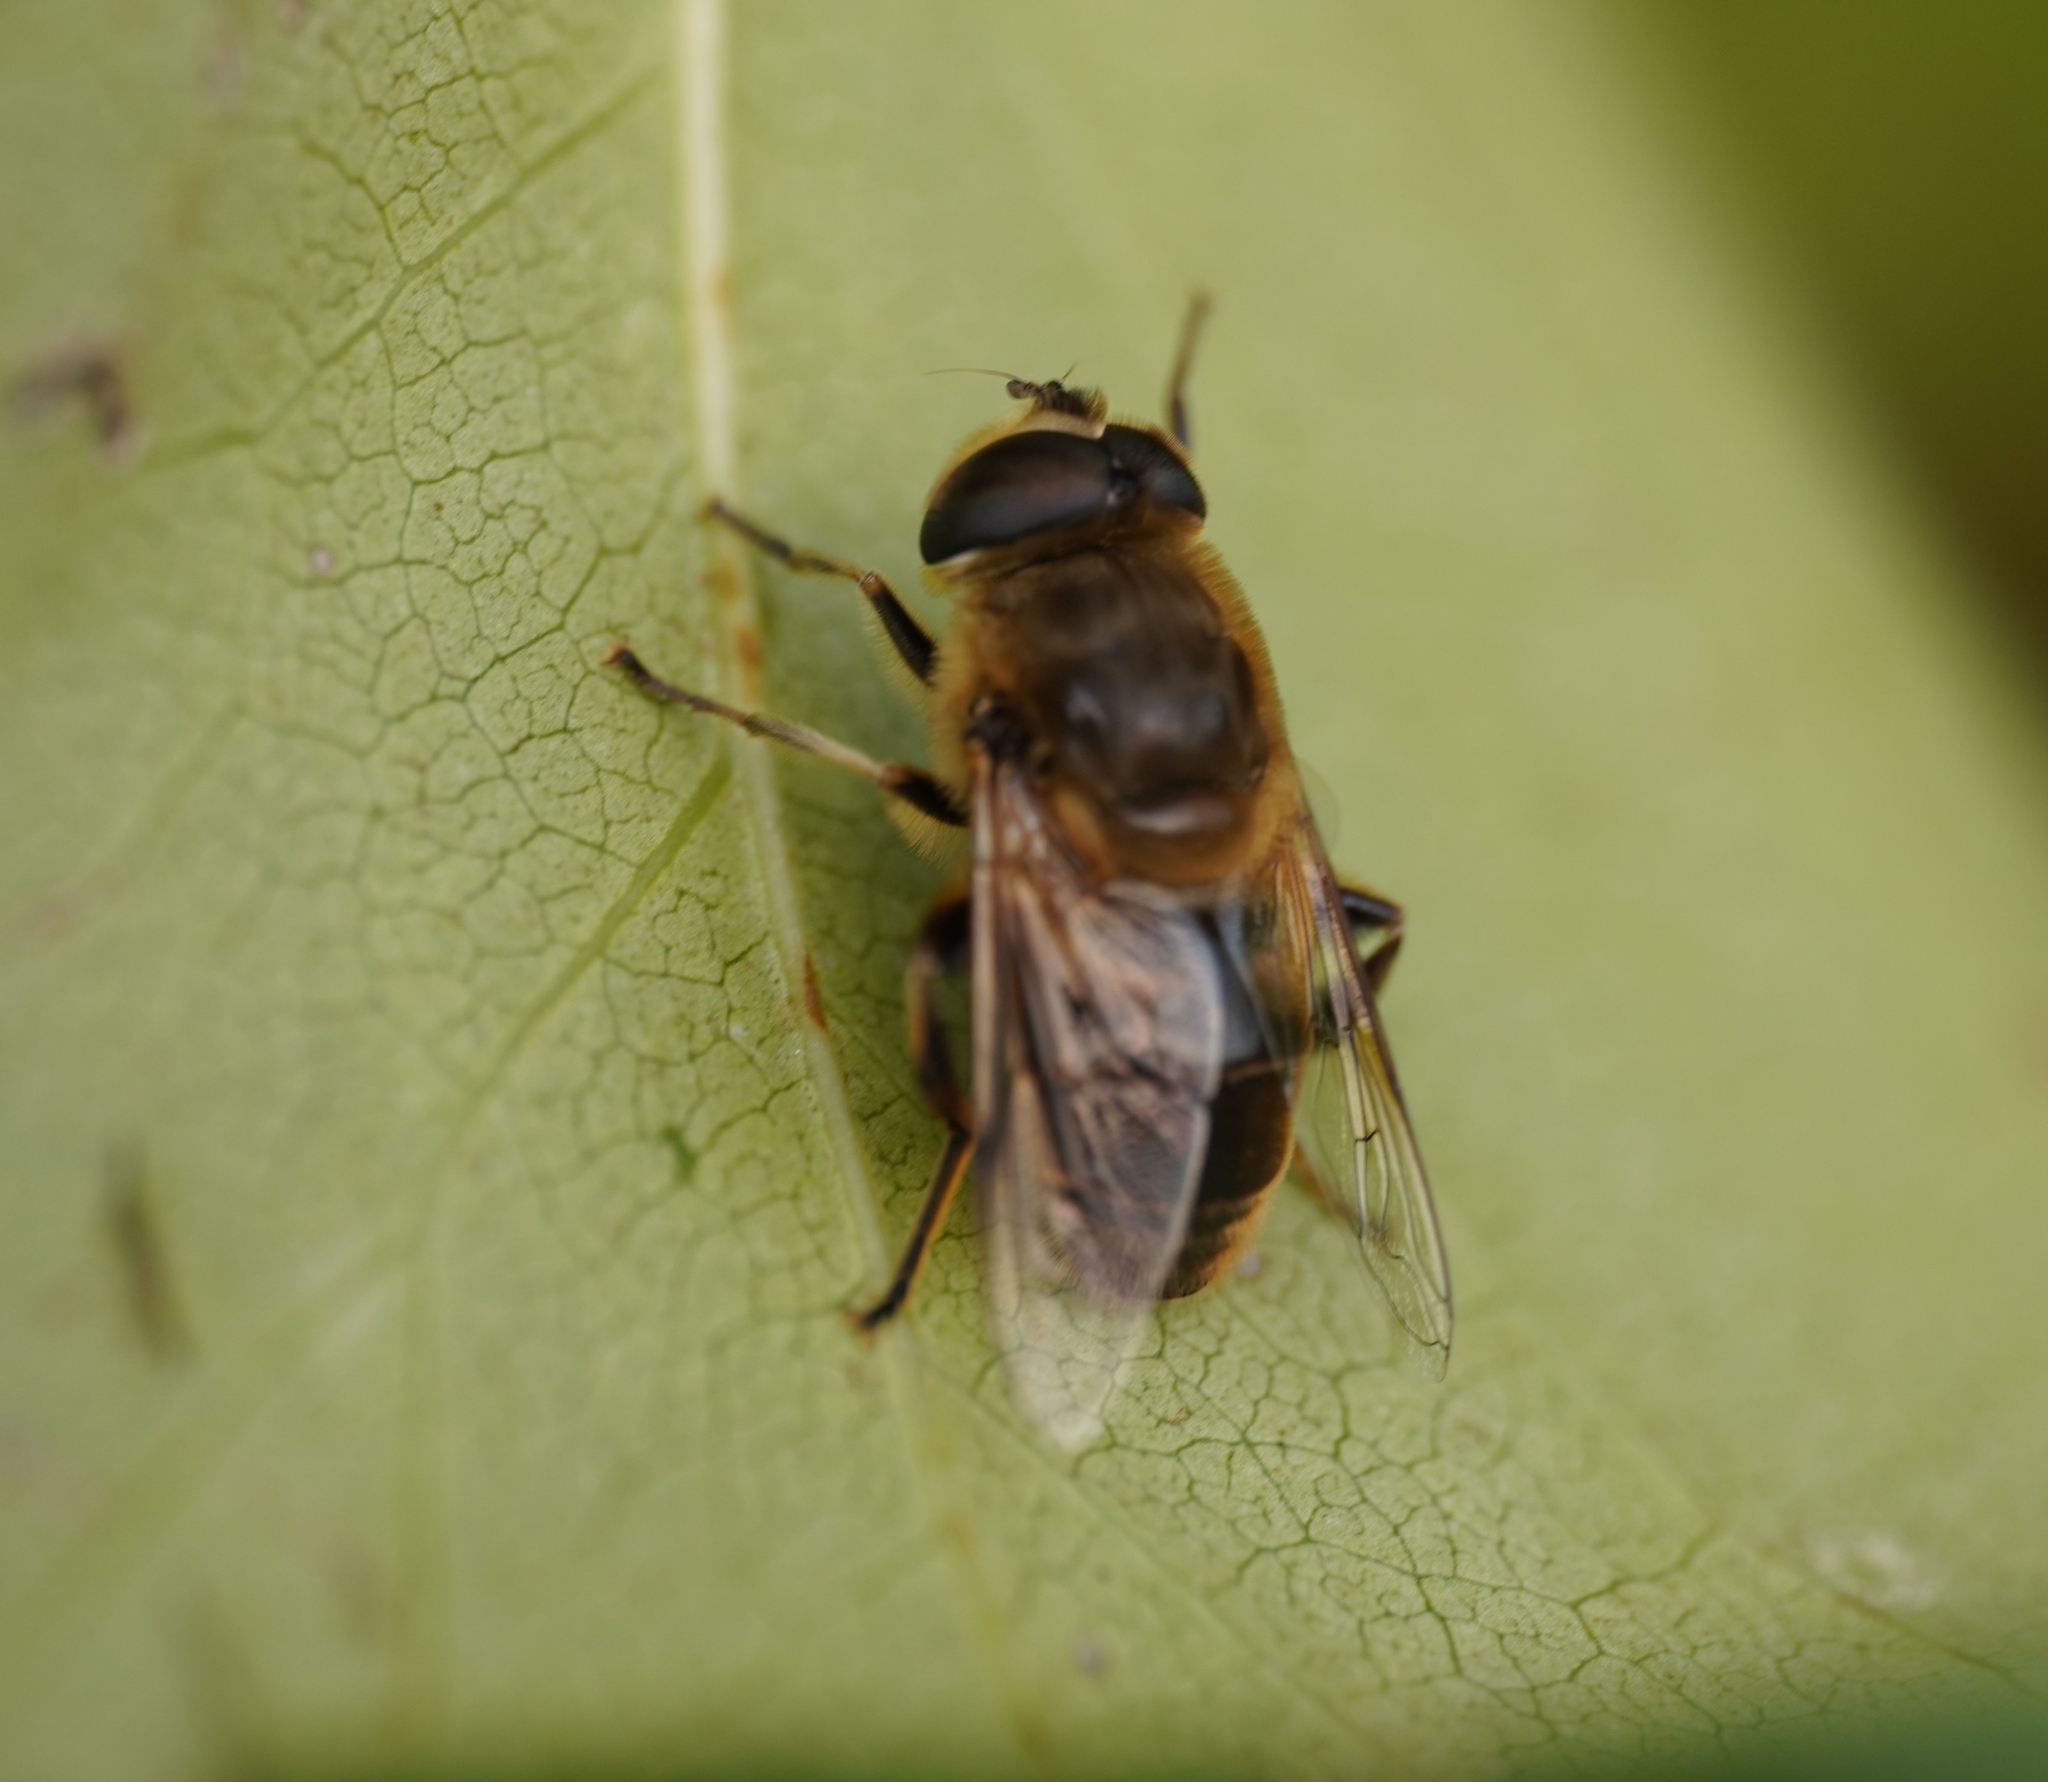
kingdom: Animalia
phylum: Arthropoda
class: Insecta
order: Diptera
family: Syrphidae
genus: Eristalis
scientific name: Eristalis tenax
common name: Drone fly
